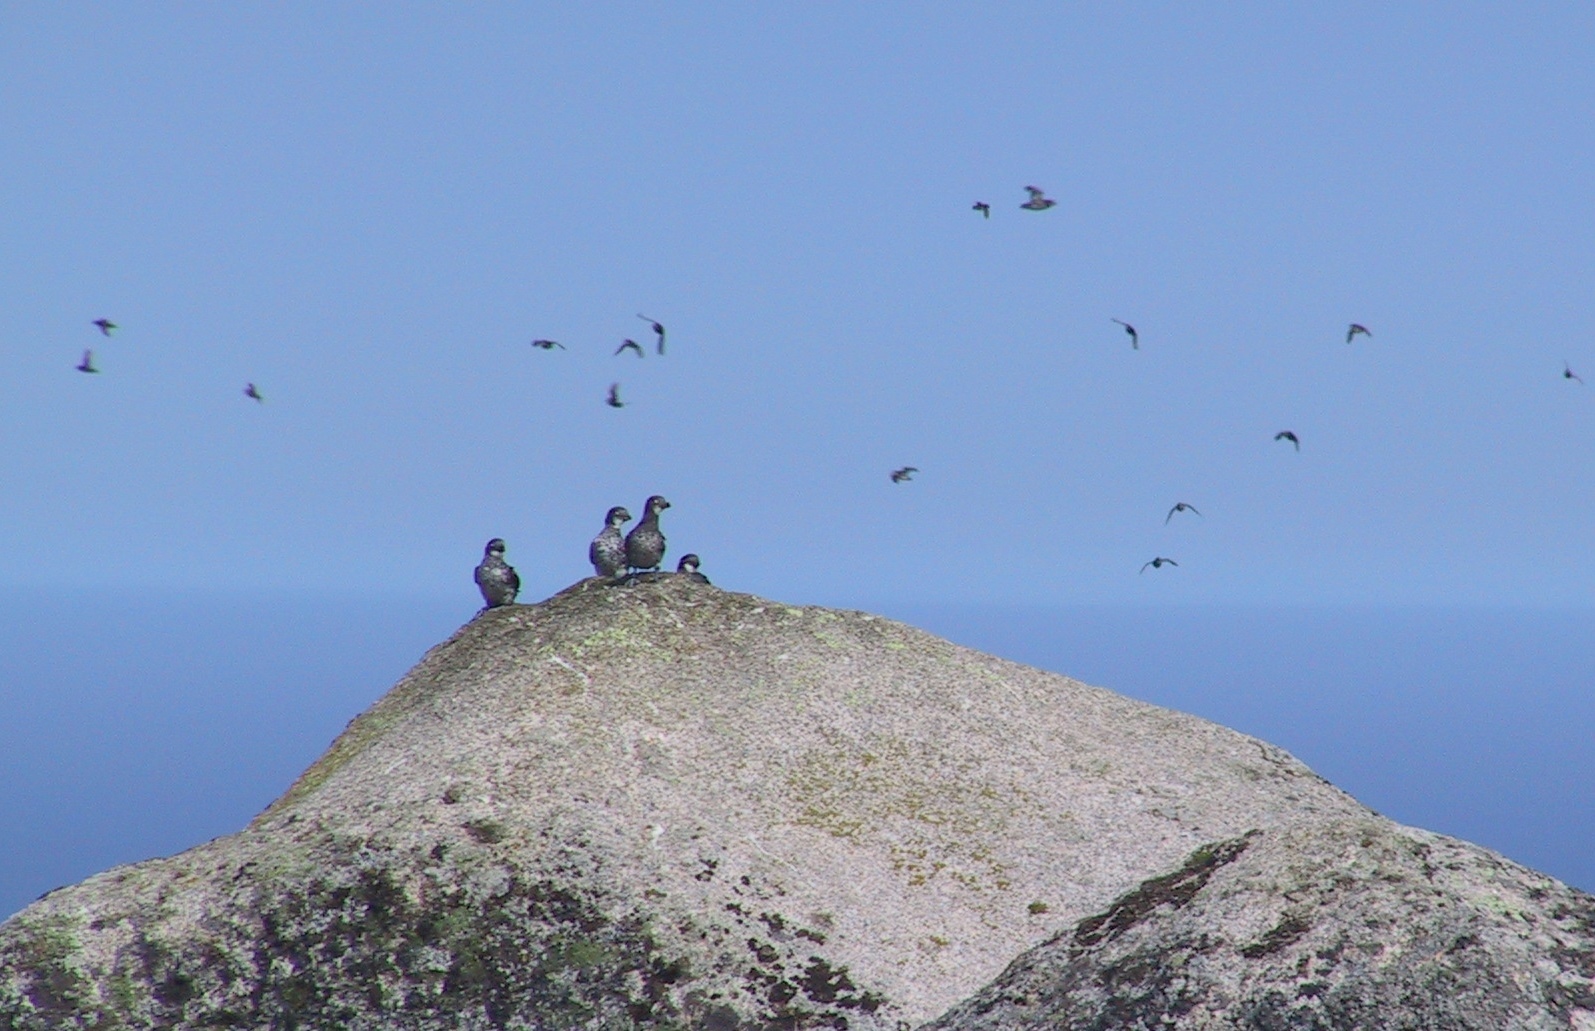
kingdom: Animalia
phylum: Chordata
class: Aves
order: Charadriiformes
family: Alcidae
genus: Aethia
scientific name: Aethia pusilla
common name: Least auklet
